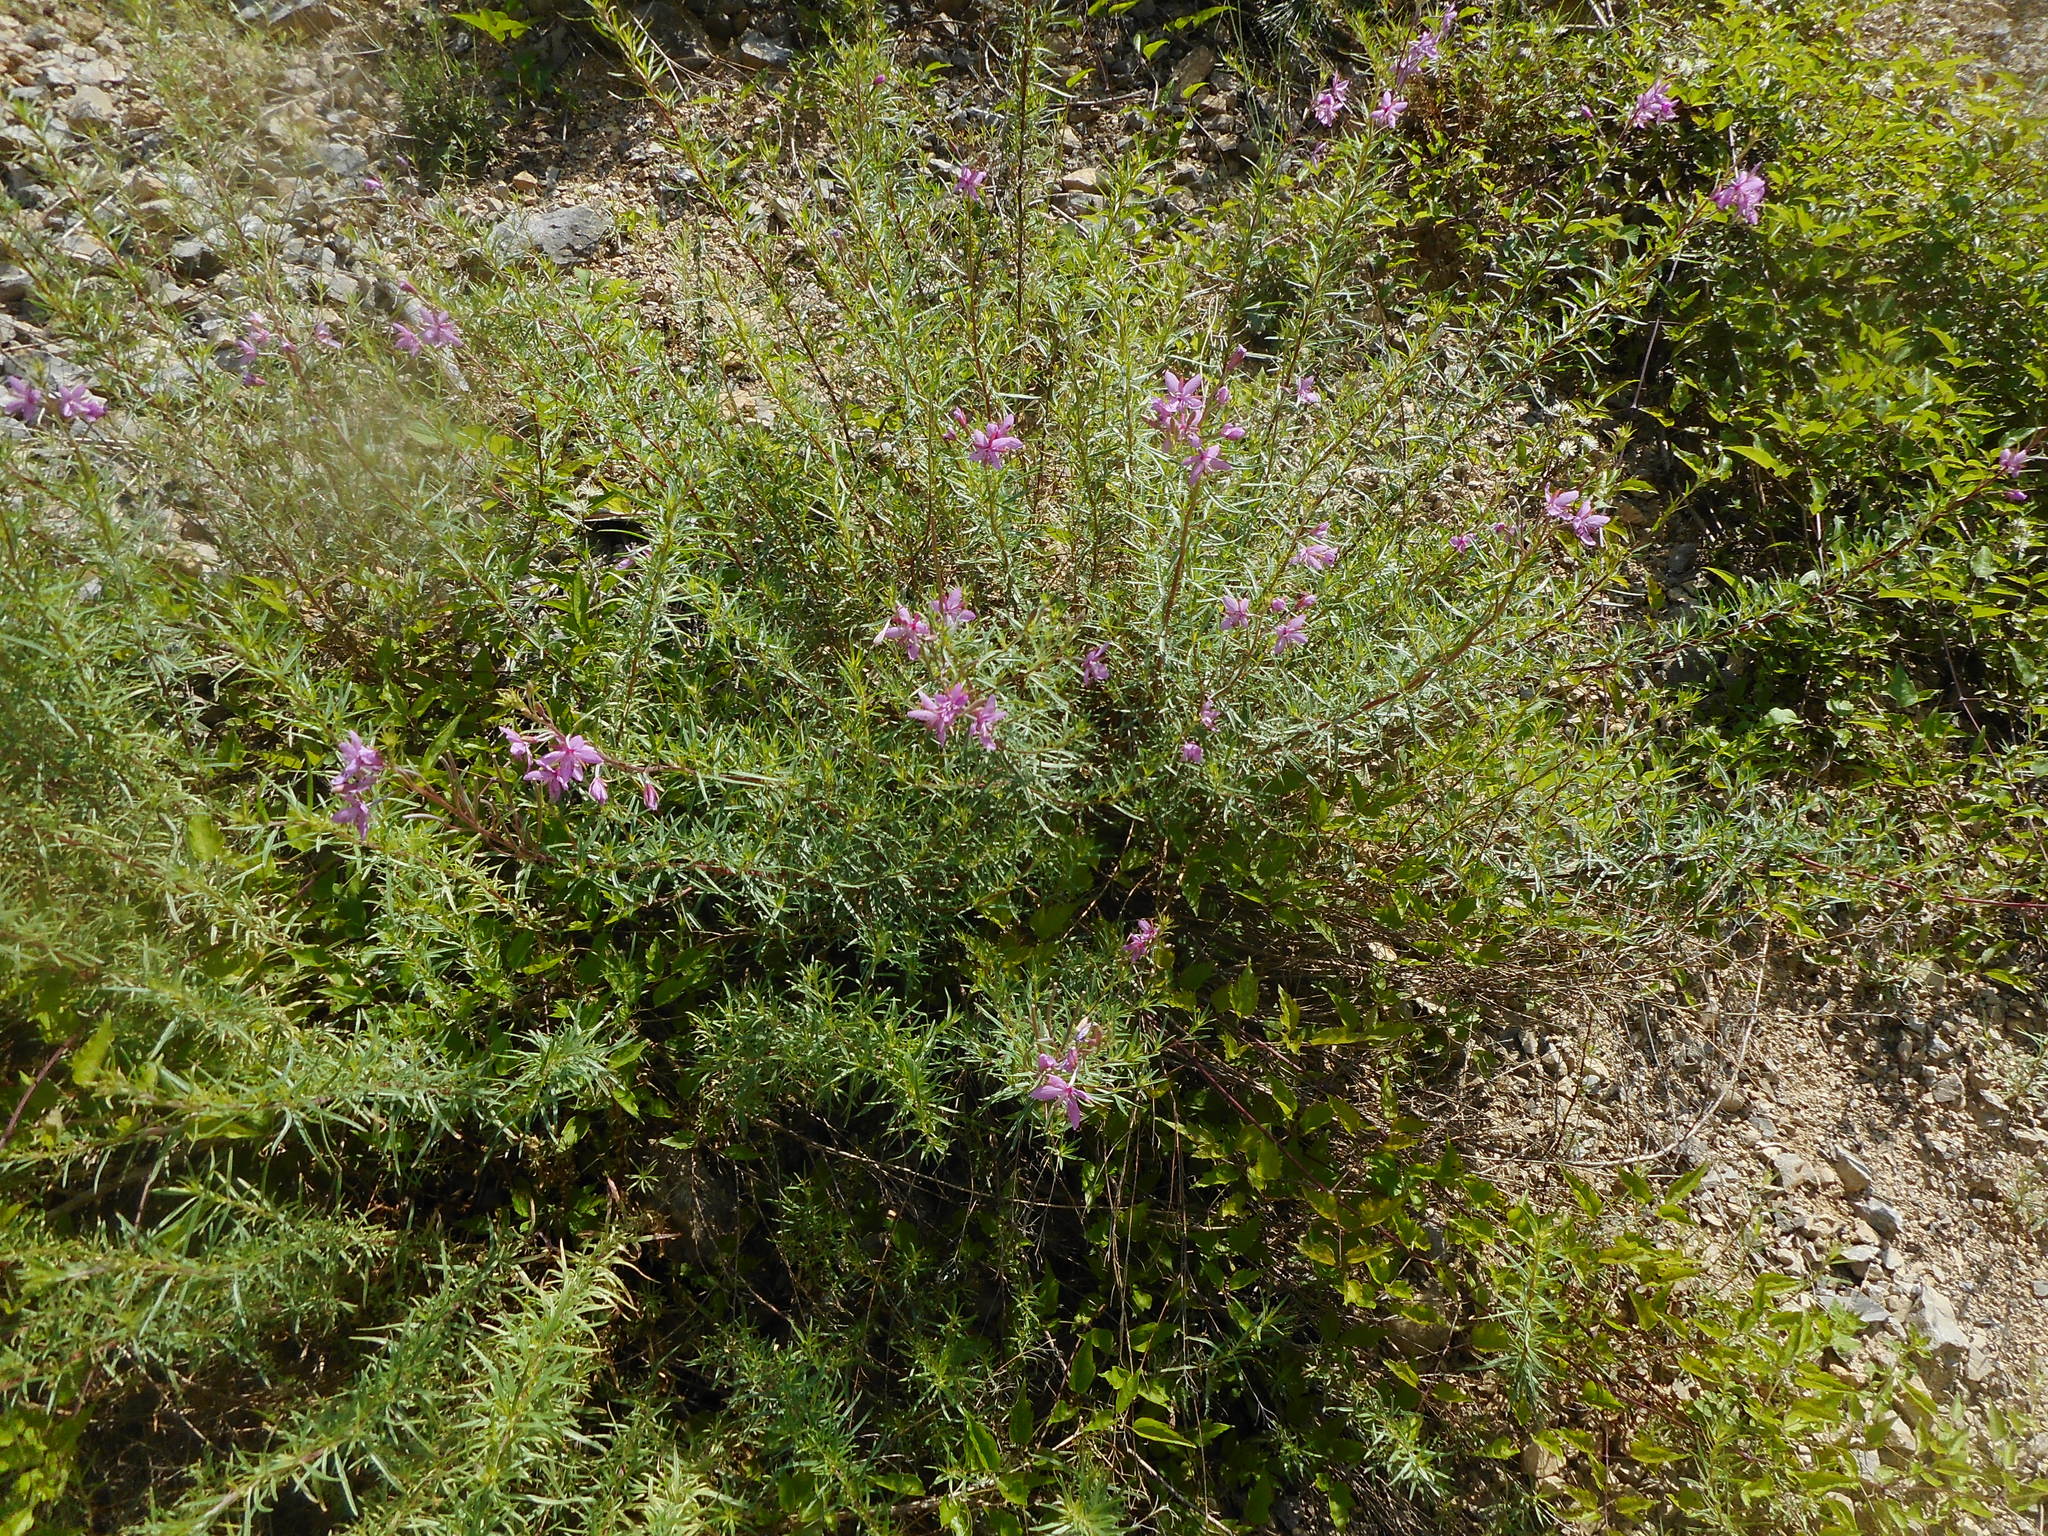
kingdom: Plantae
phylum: Tracheophyta
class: Magnoliopsida
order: Myrtales
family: Onagraceae
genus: Chamaenerion
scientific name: Chamaenerion dodonaei
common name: Rosemary-leaved willowherb
